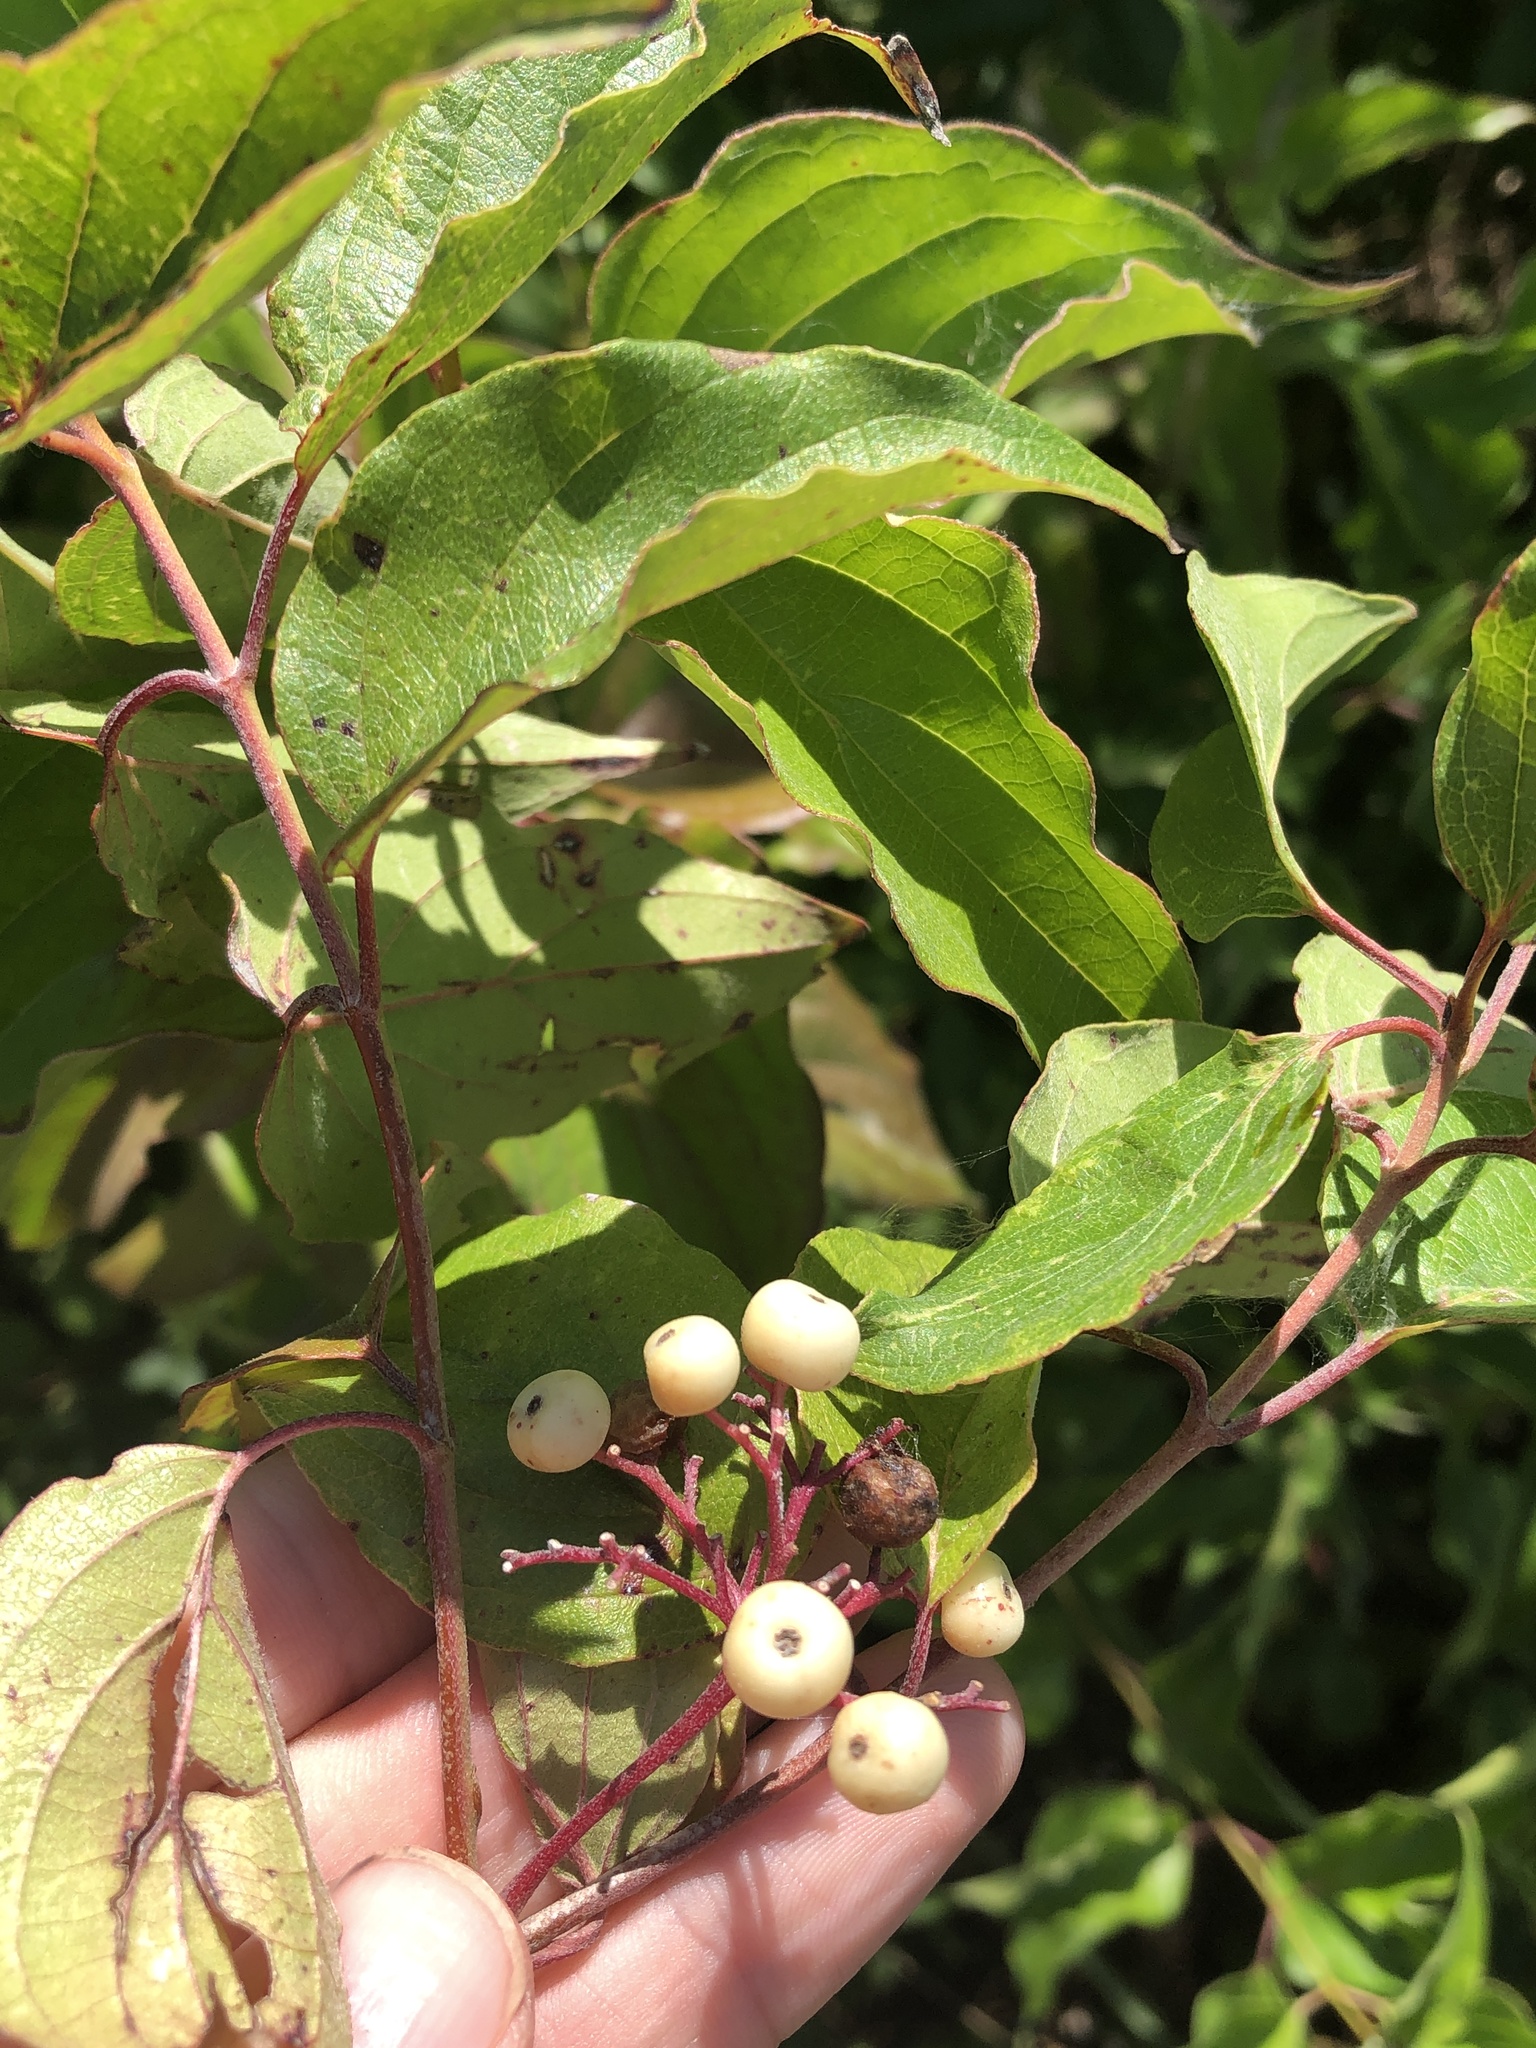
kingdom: Plantae
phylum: Tracheophyta
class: Magnoliopsida
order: Cornales
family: Cornaceae
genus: Cornus
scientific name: Cornus drummondii
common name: Rough-leaf dogwood
